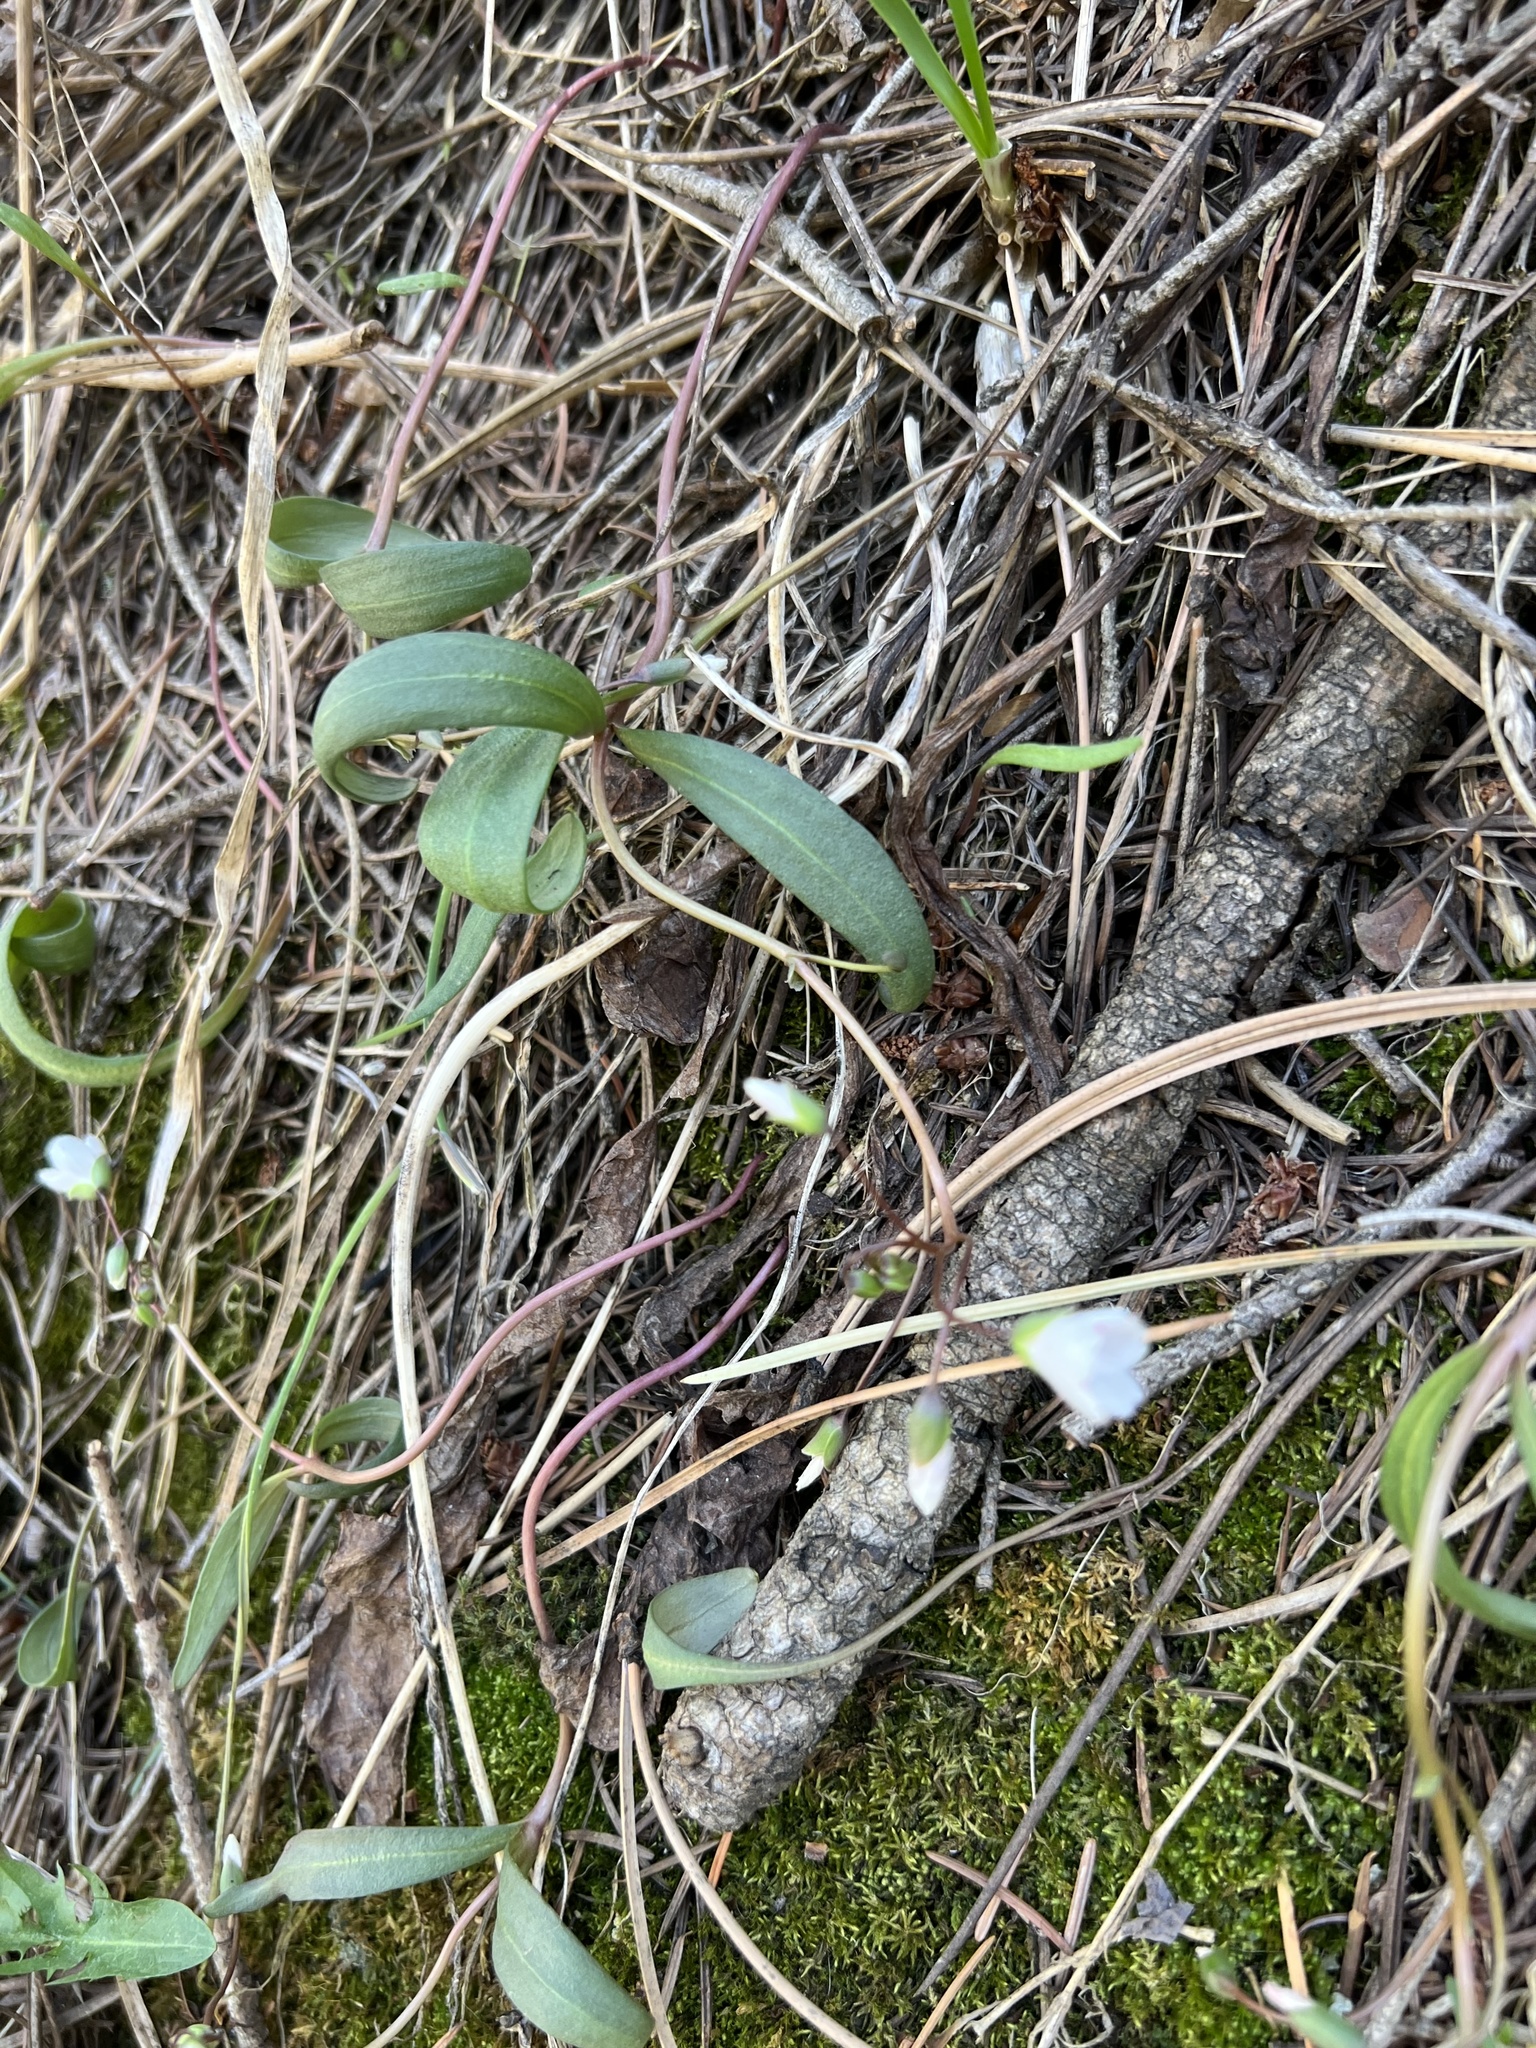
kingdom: Plantae
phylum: Tracheophyta
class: Magnoliopsida
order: Caryophyllales
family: Montiaceae
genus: Claytonia
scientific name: Claytonia rosea
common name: Rocky mountain spring-beauty
